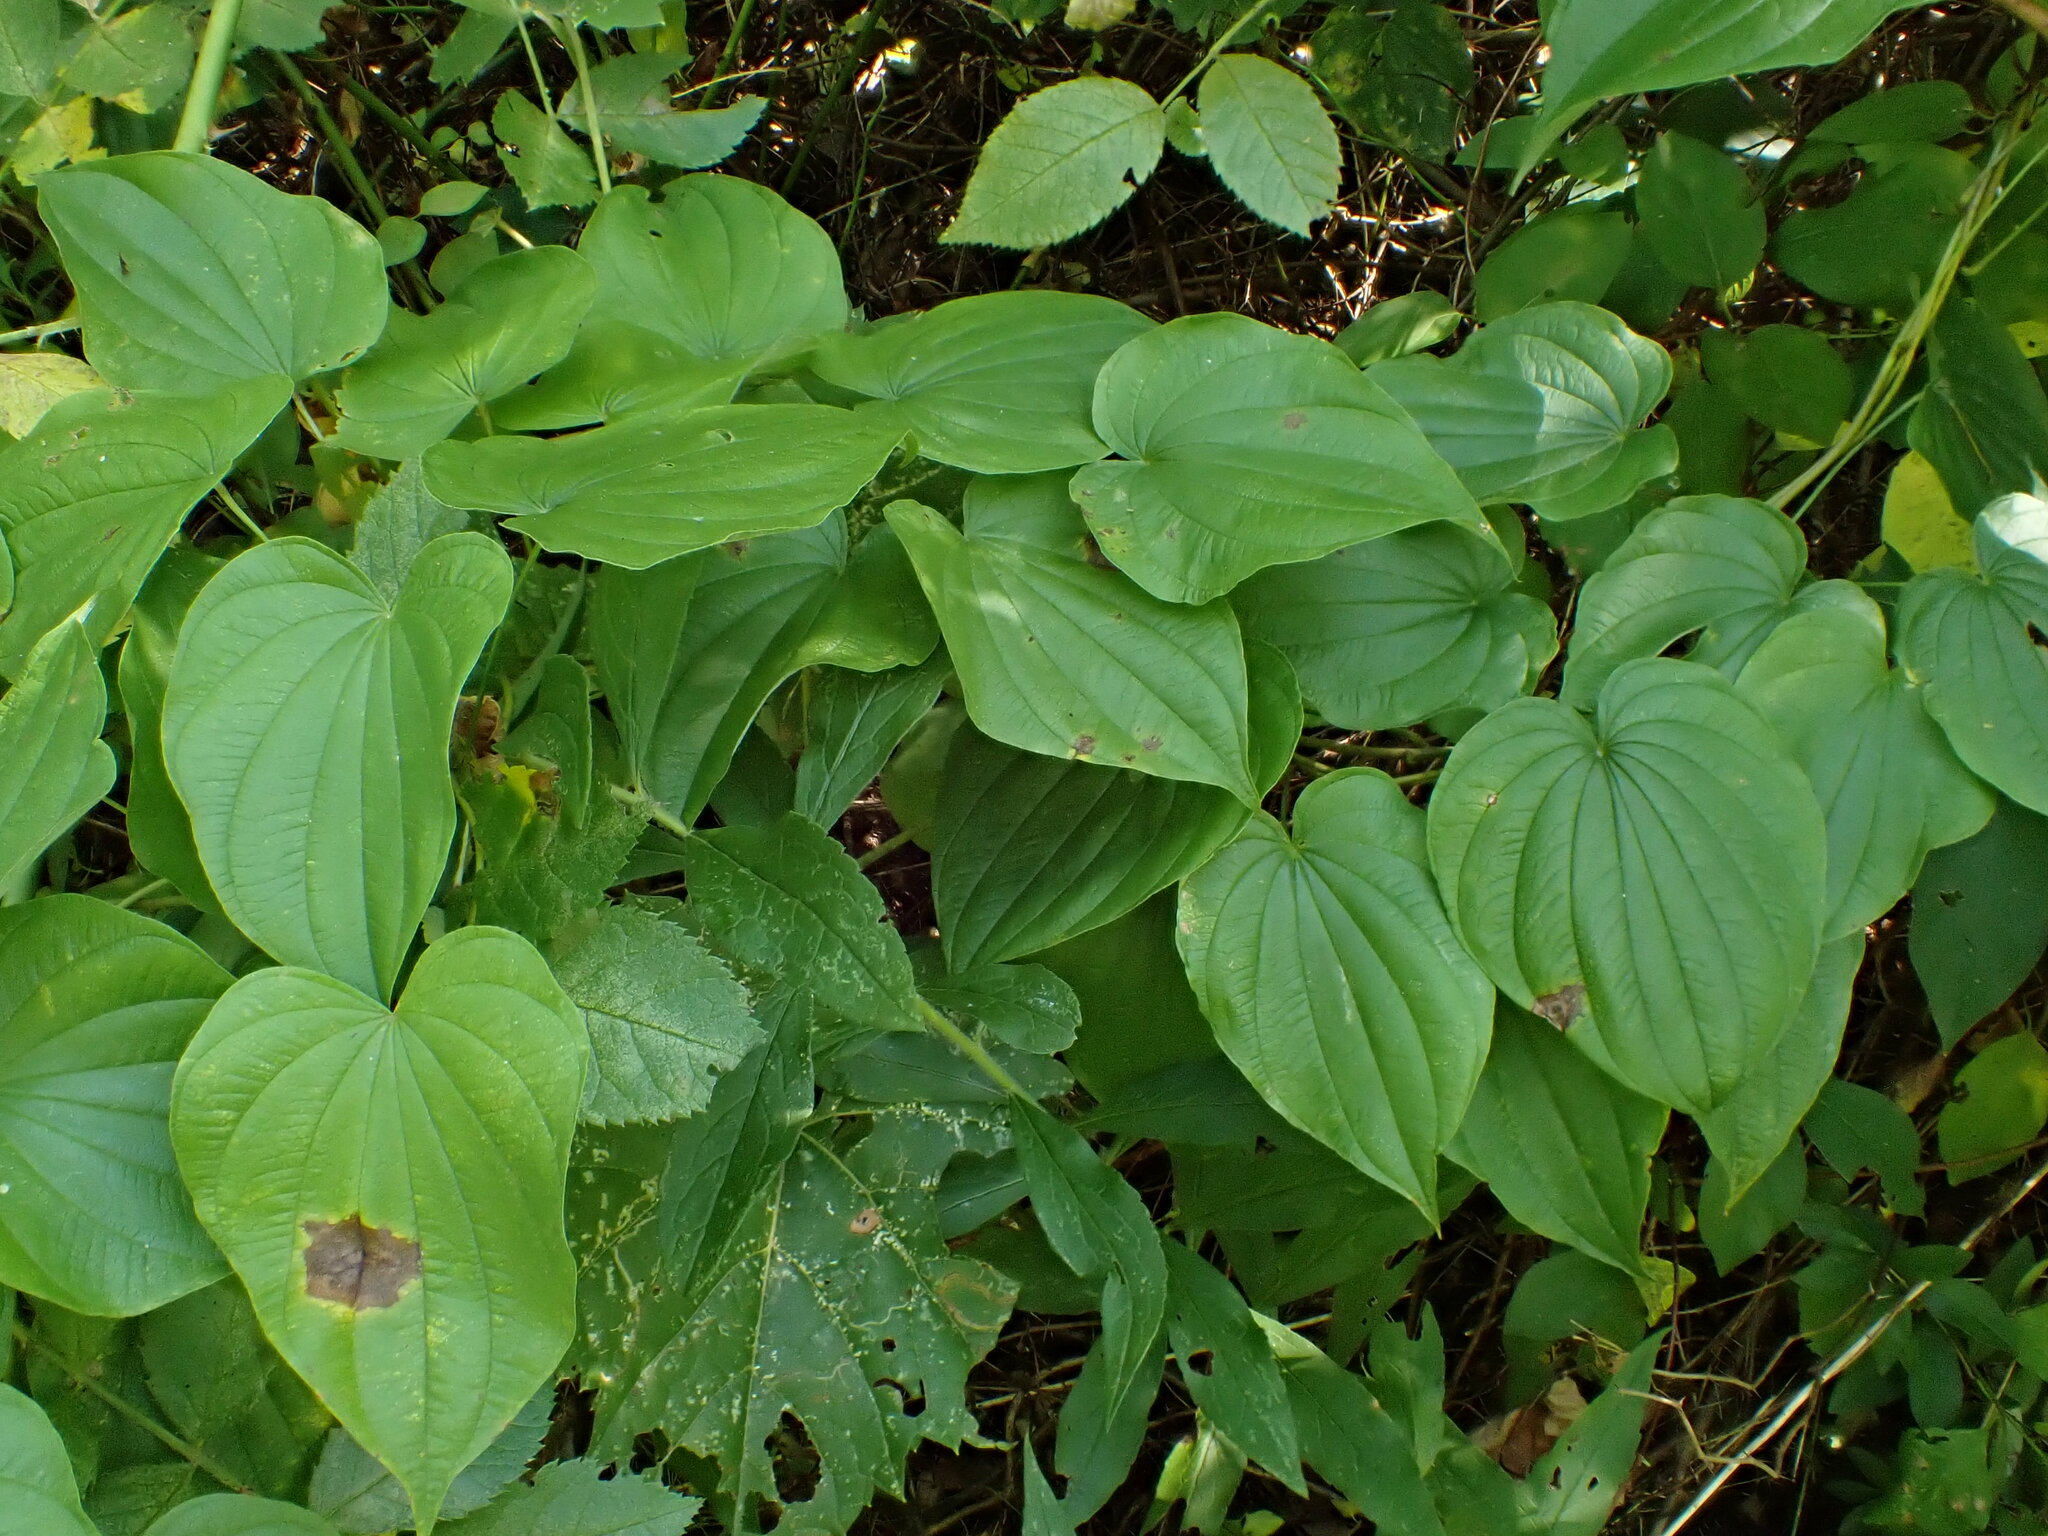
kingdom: Plantae
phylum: Tracheophyta
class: Liliopsida
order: Dioscoreales
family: Dioscoreaceae
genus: Dioscorea
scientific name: Dioscorea villosa
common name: Wild yam
